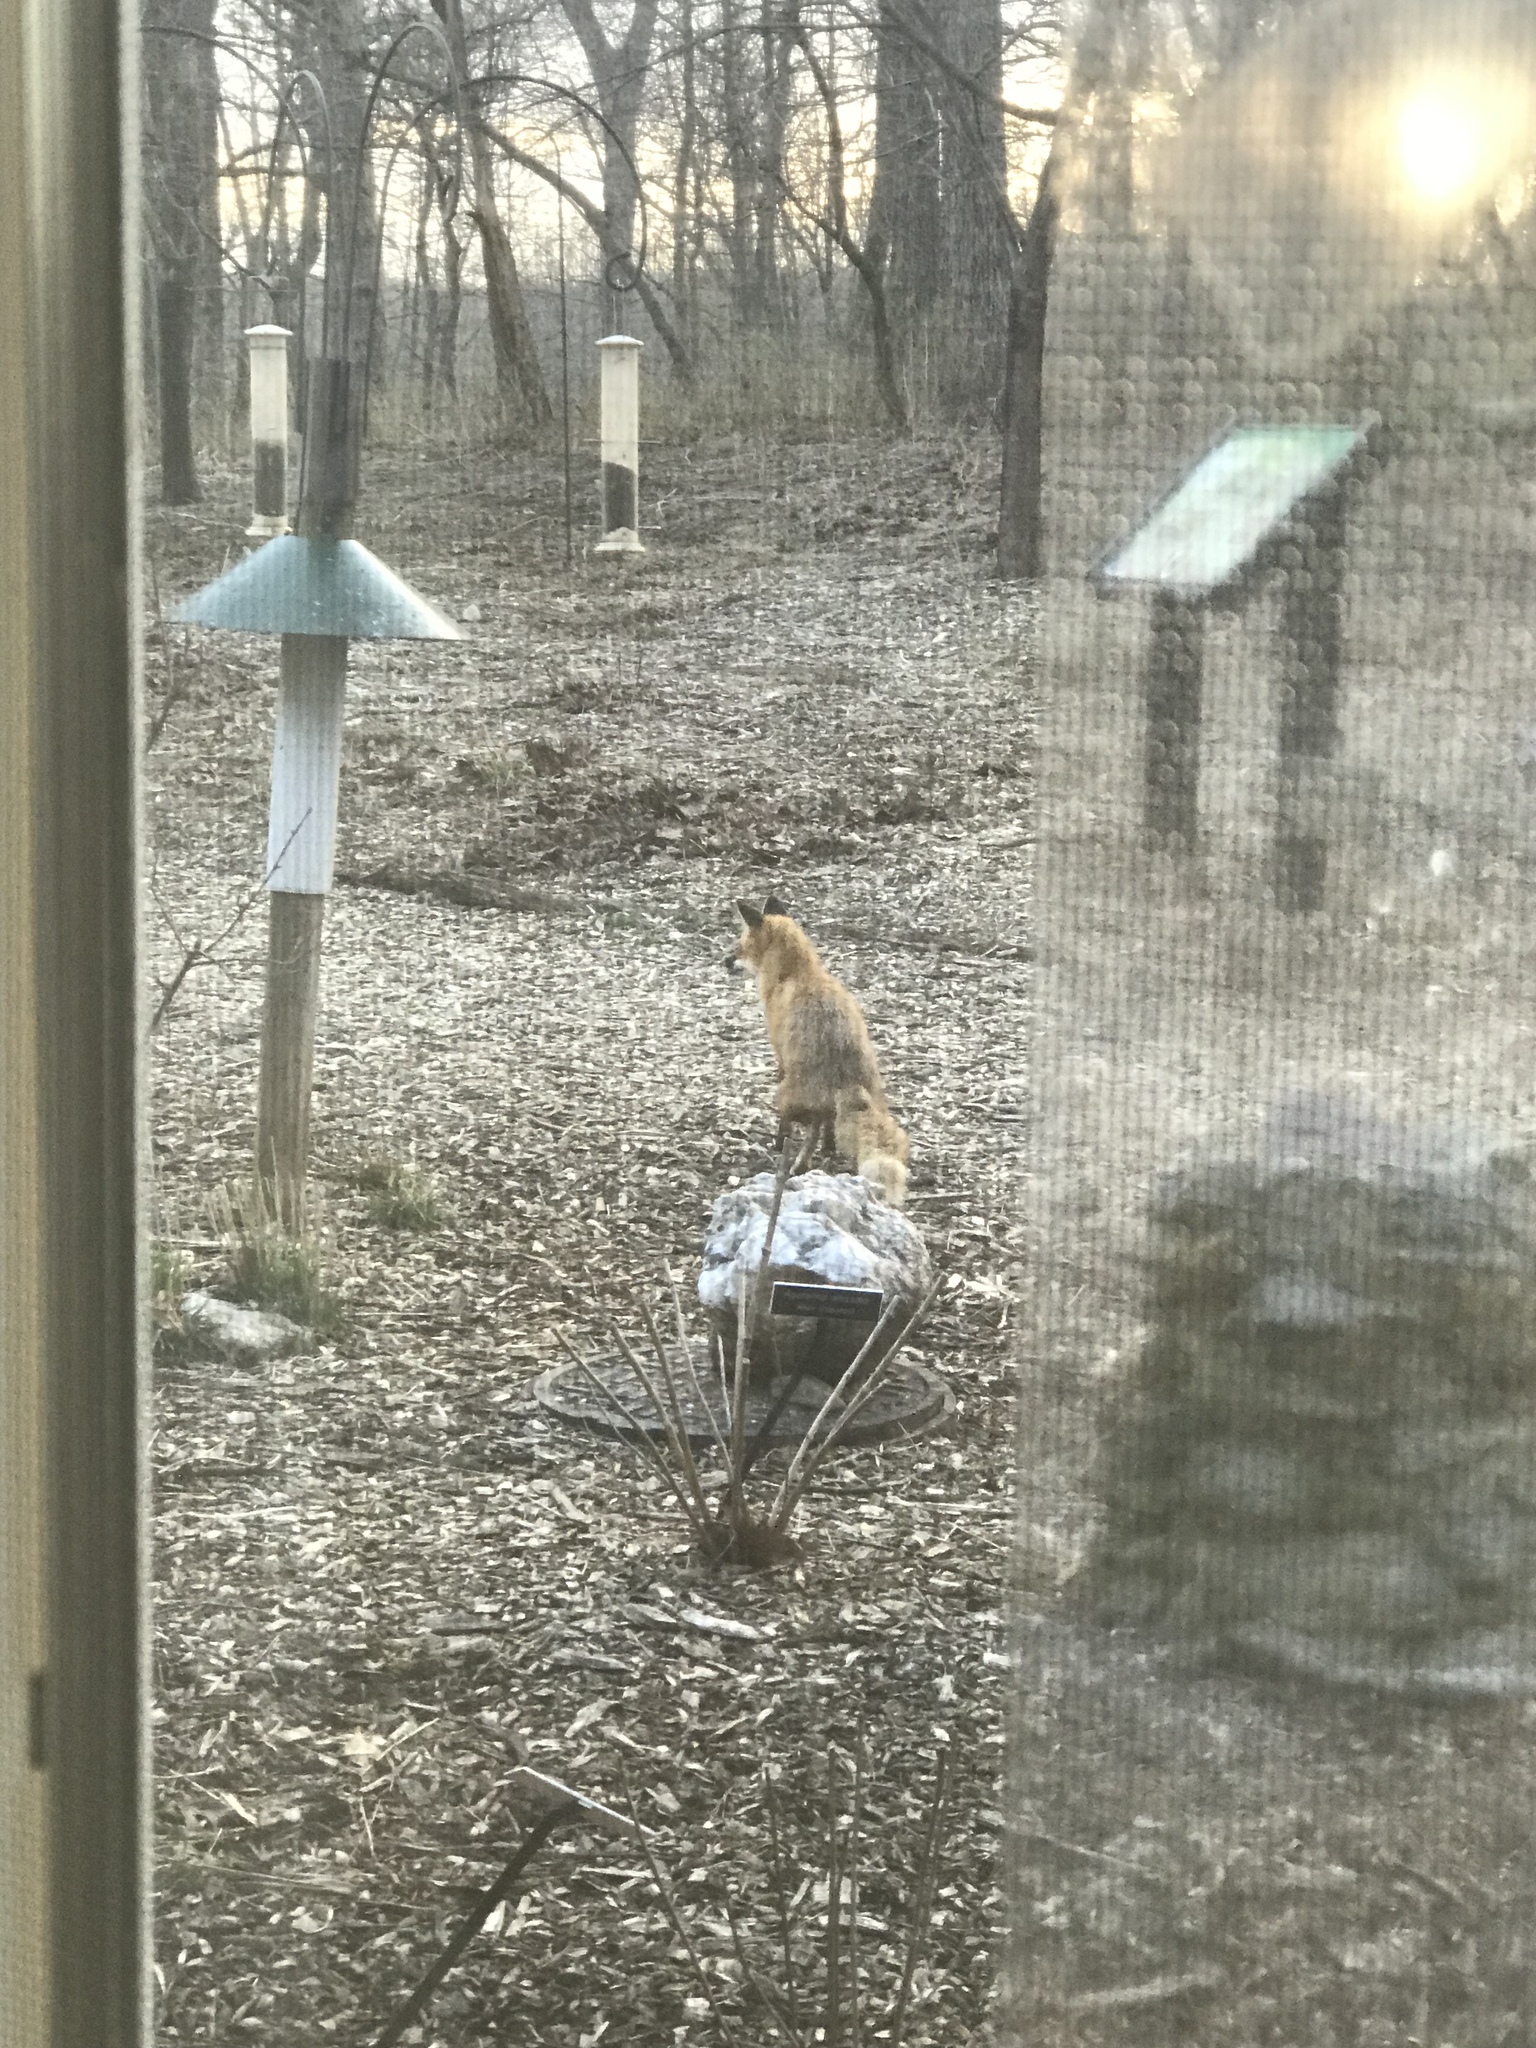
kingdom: Animalia
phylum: Chordata
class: Mammalia
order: Carnivora
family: Canidae
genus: Vulpes
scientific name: Vulpes vulpes
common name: Red fox
